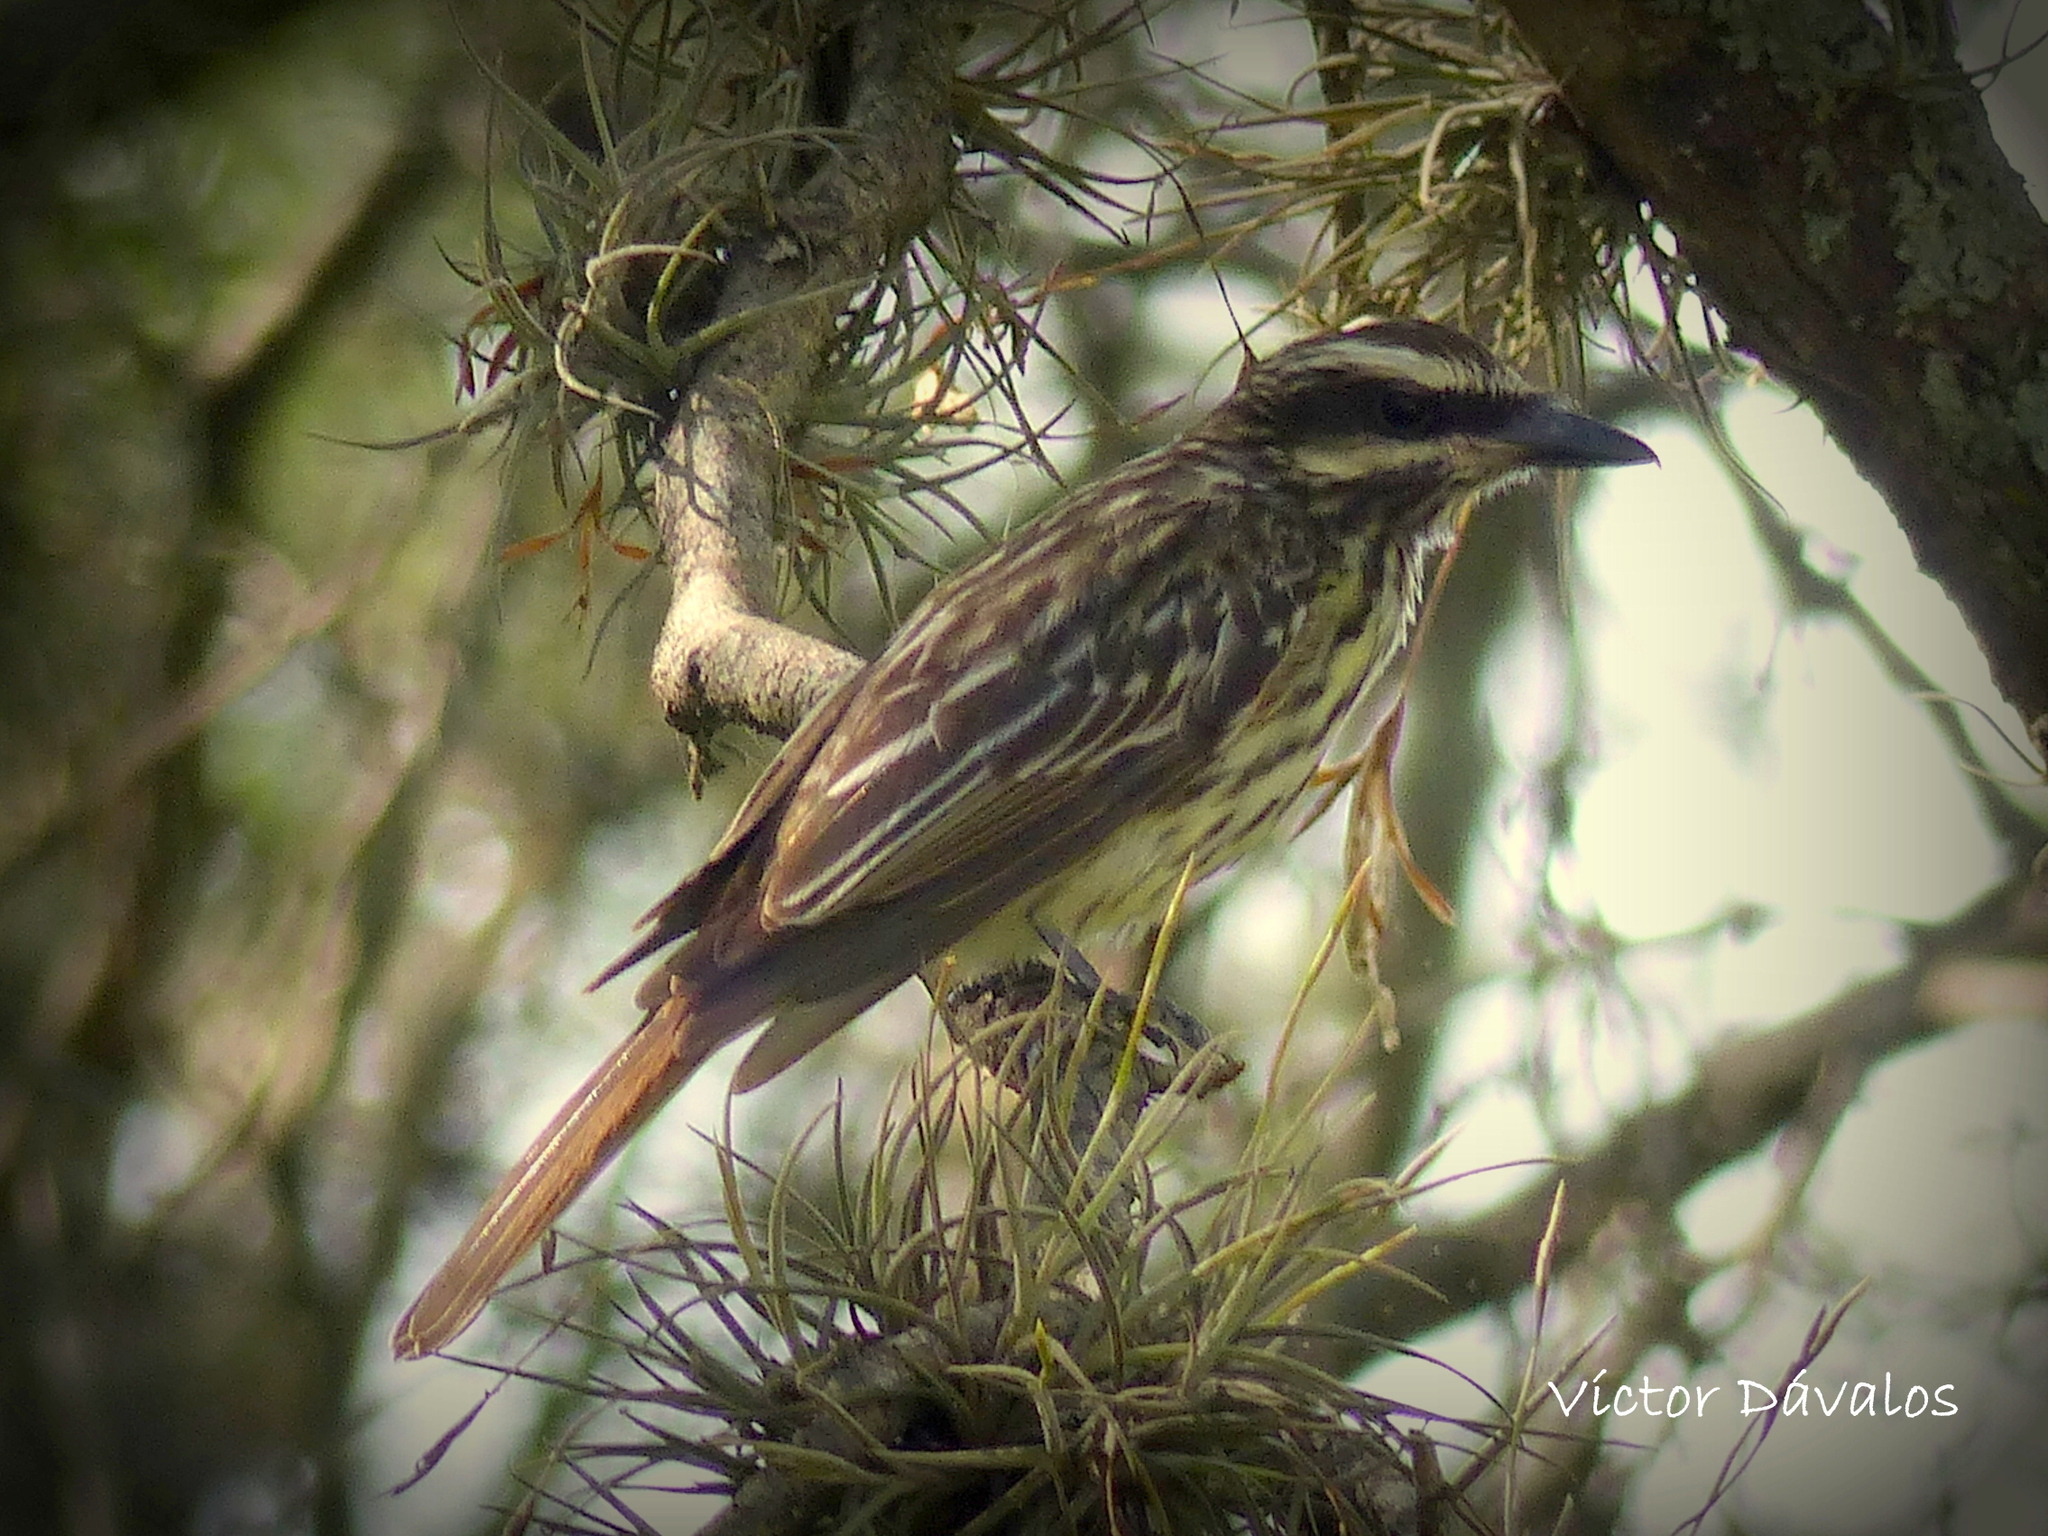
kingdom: Animalia
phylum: Chordata
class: Aves
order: Passeriformes
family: Tyrannidae
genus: Myiodynastes
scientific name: Myiodynastes maculatus
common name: Streaked flycatcher
